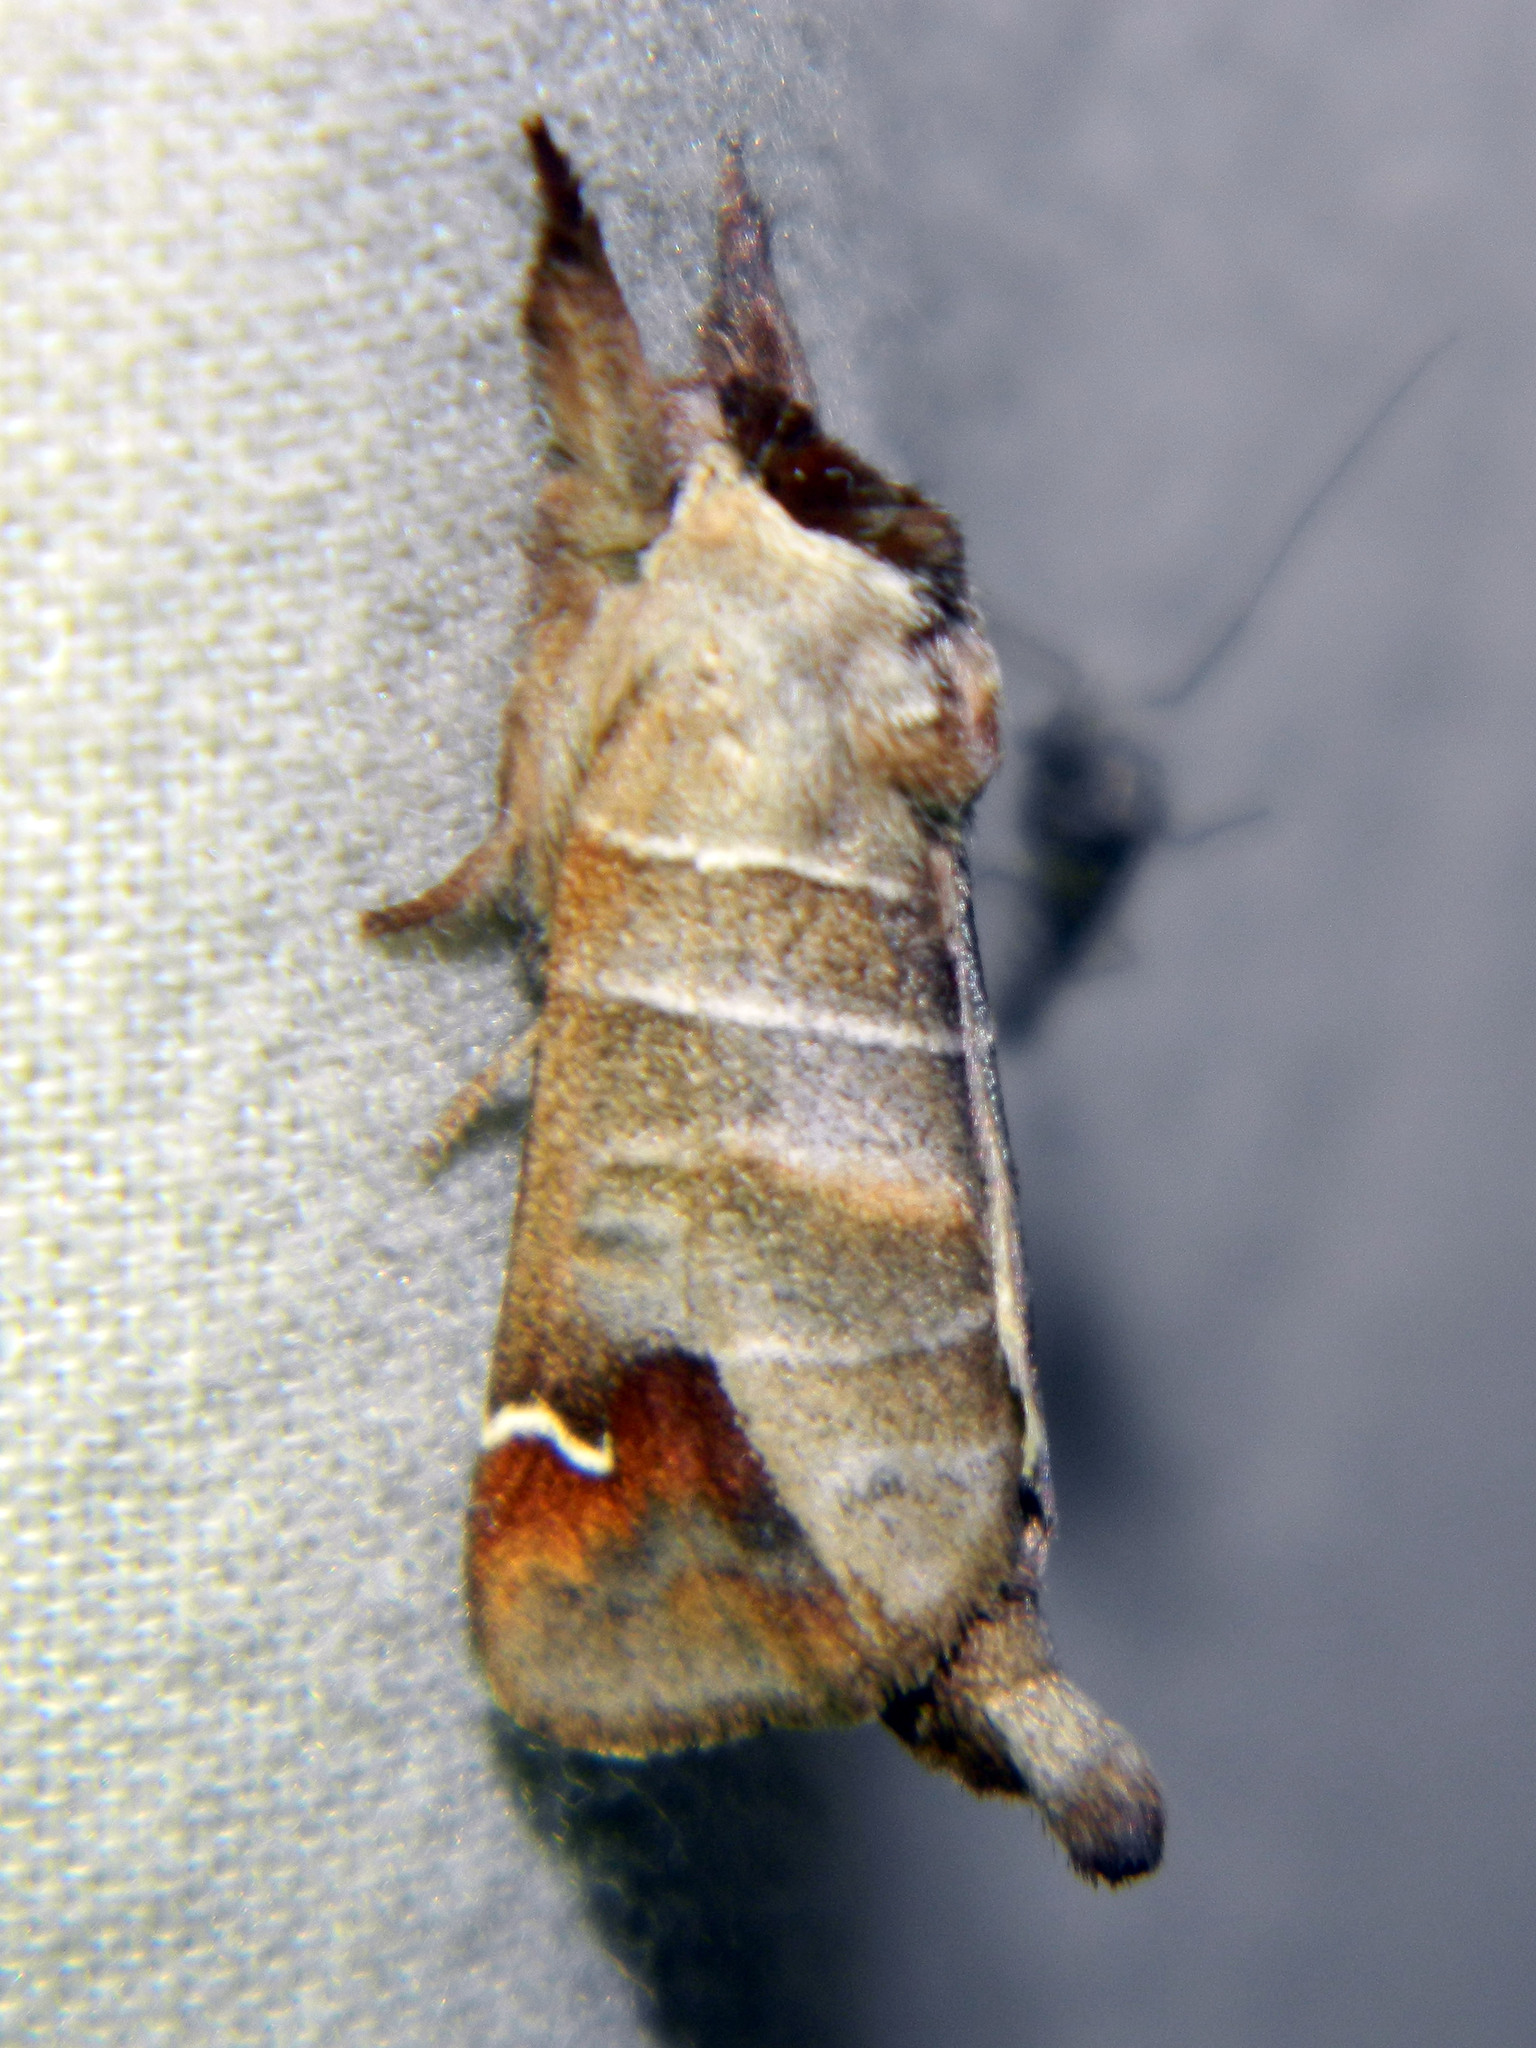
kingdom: Animalia
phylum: Arthropoda
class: Insecta
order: Lepidoptera
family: Notodontidae
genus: Clostera
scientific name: Clostera albosigma
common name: Sigmoid prominent
